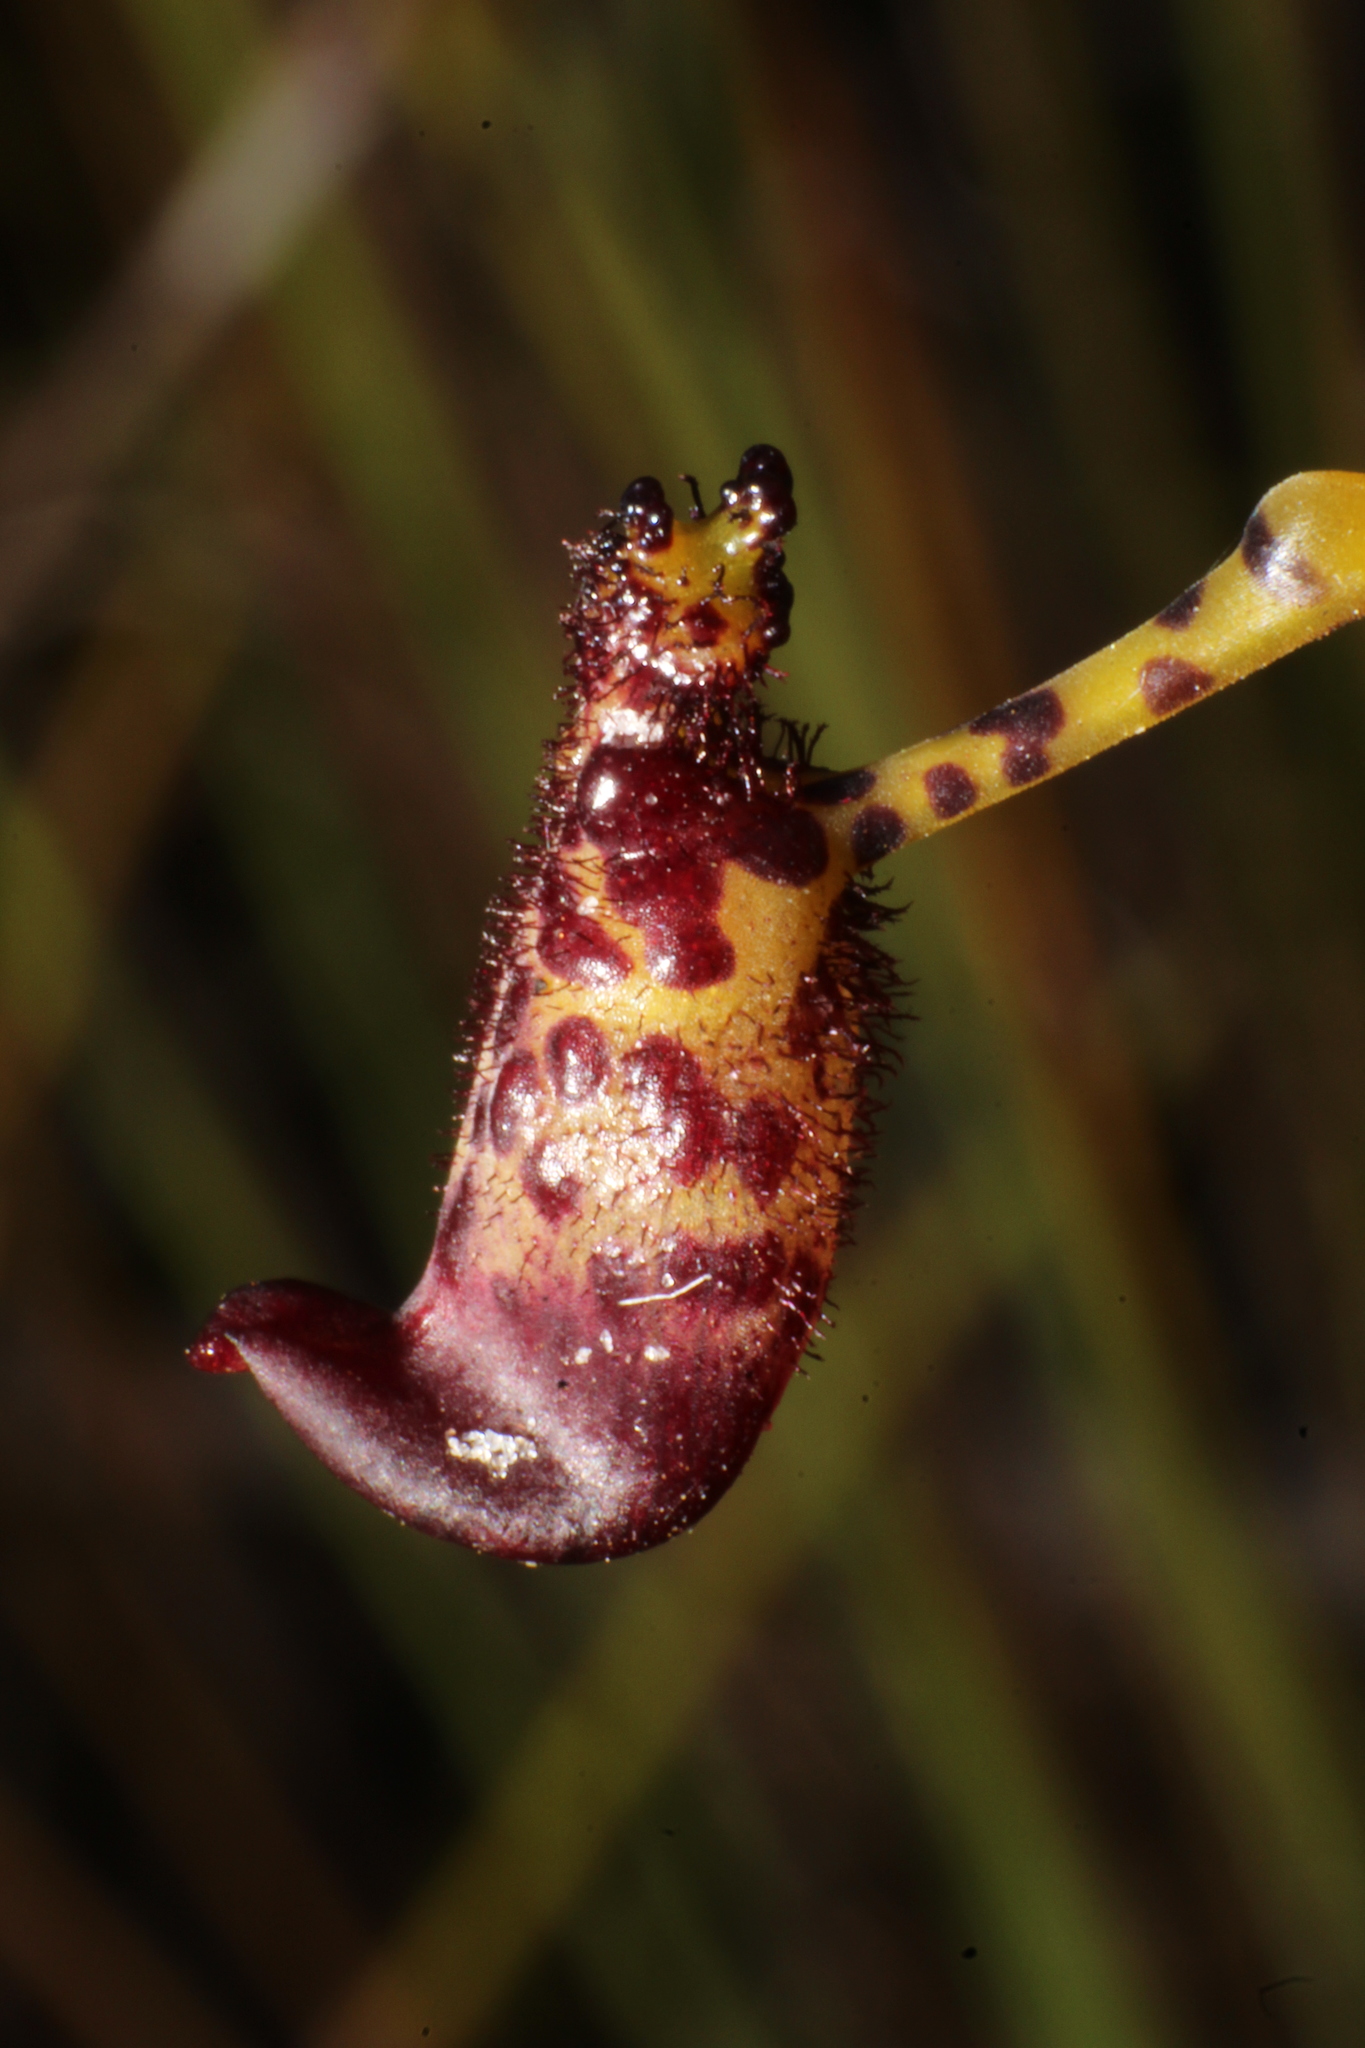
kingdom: Plantae
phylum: Tracheophyta
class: Liliopsida
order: Asparagales
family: Orchidaceae
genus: Drakaea
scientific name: Drakaea livida
